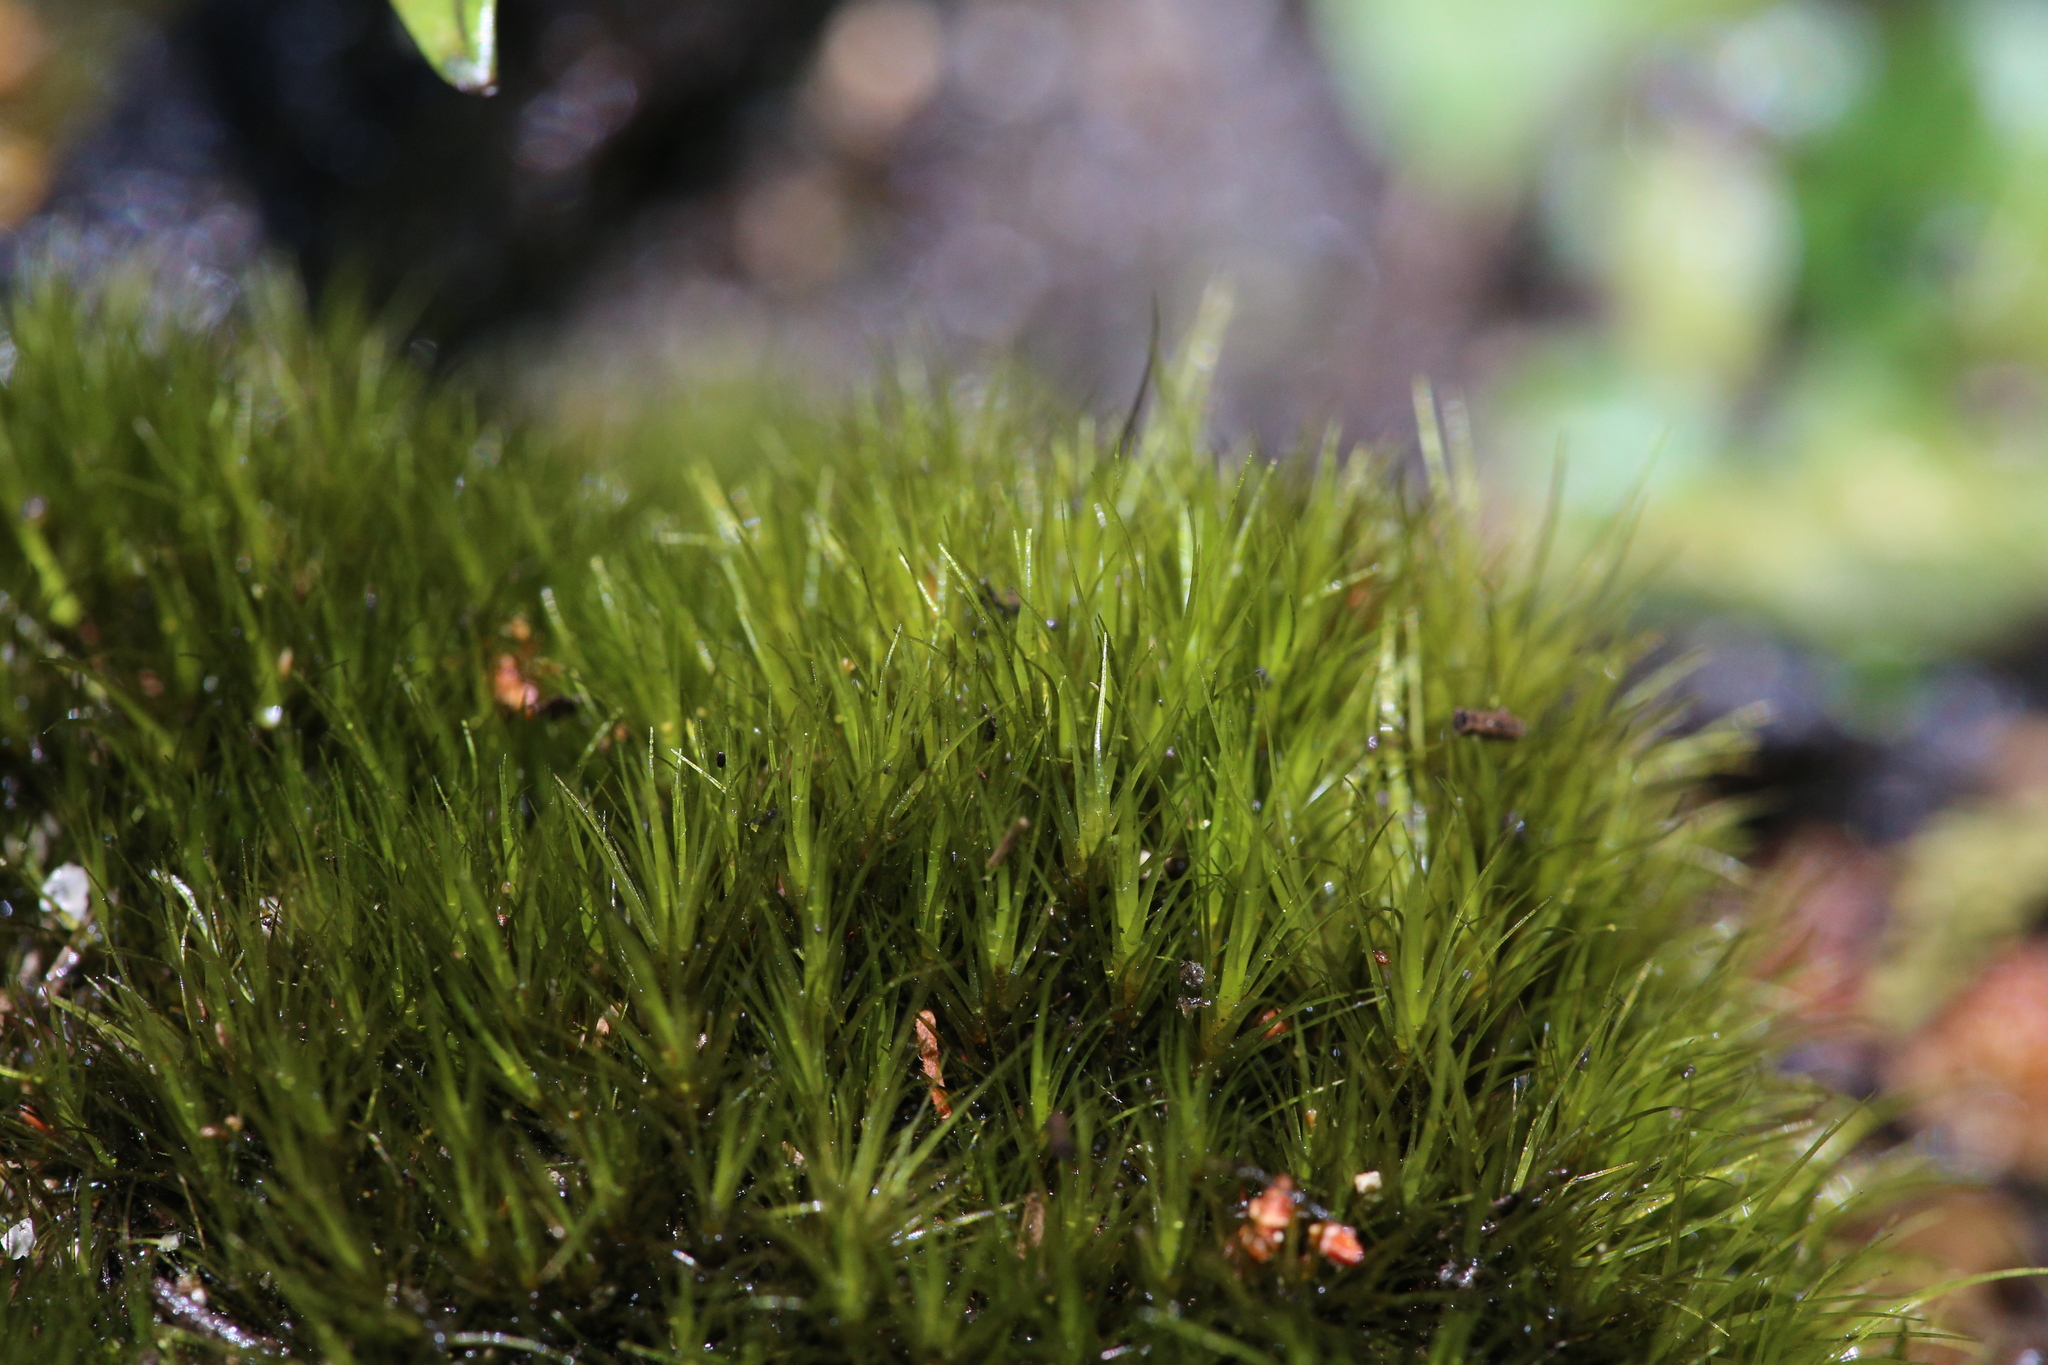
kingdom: Plantae
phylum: Bryophyta
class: Bryopsida
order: Dicranales
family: Leucobryaceae
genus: Campylopus
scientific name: Campylopus clavatus
